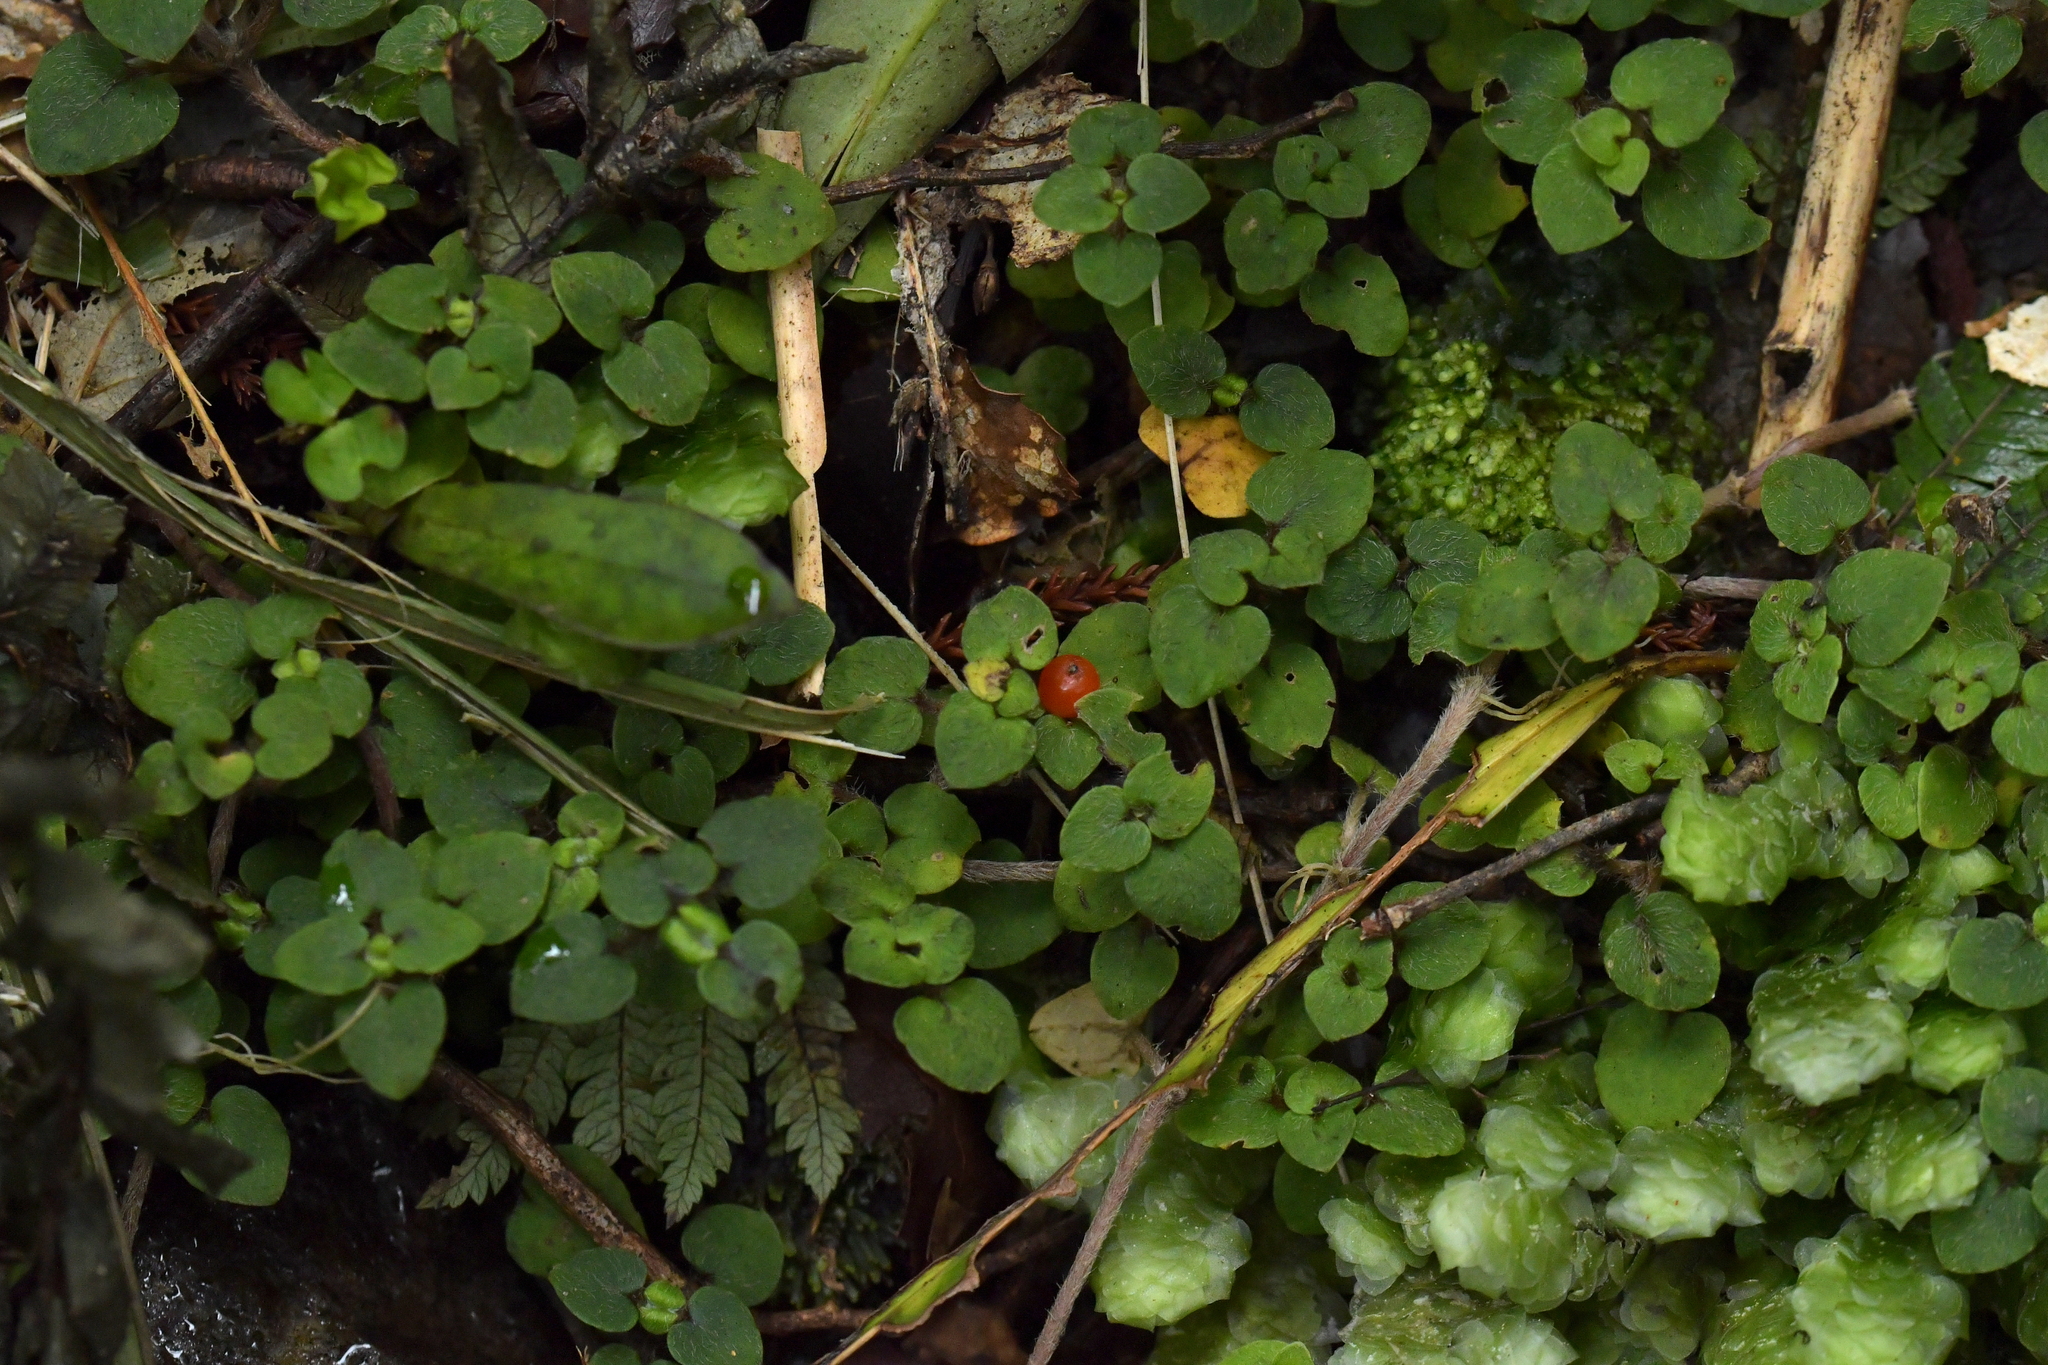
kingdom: Plantae
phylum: Tracheophyta
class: Magnoliopsida
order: Gentianales
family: Rubiaceae
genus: Nertera
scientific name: Nertera villosa
